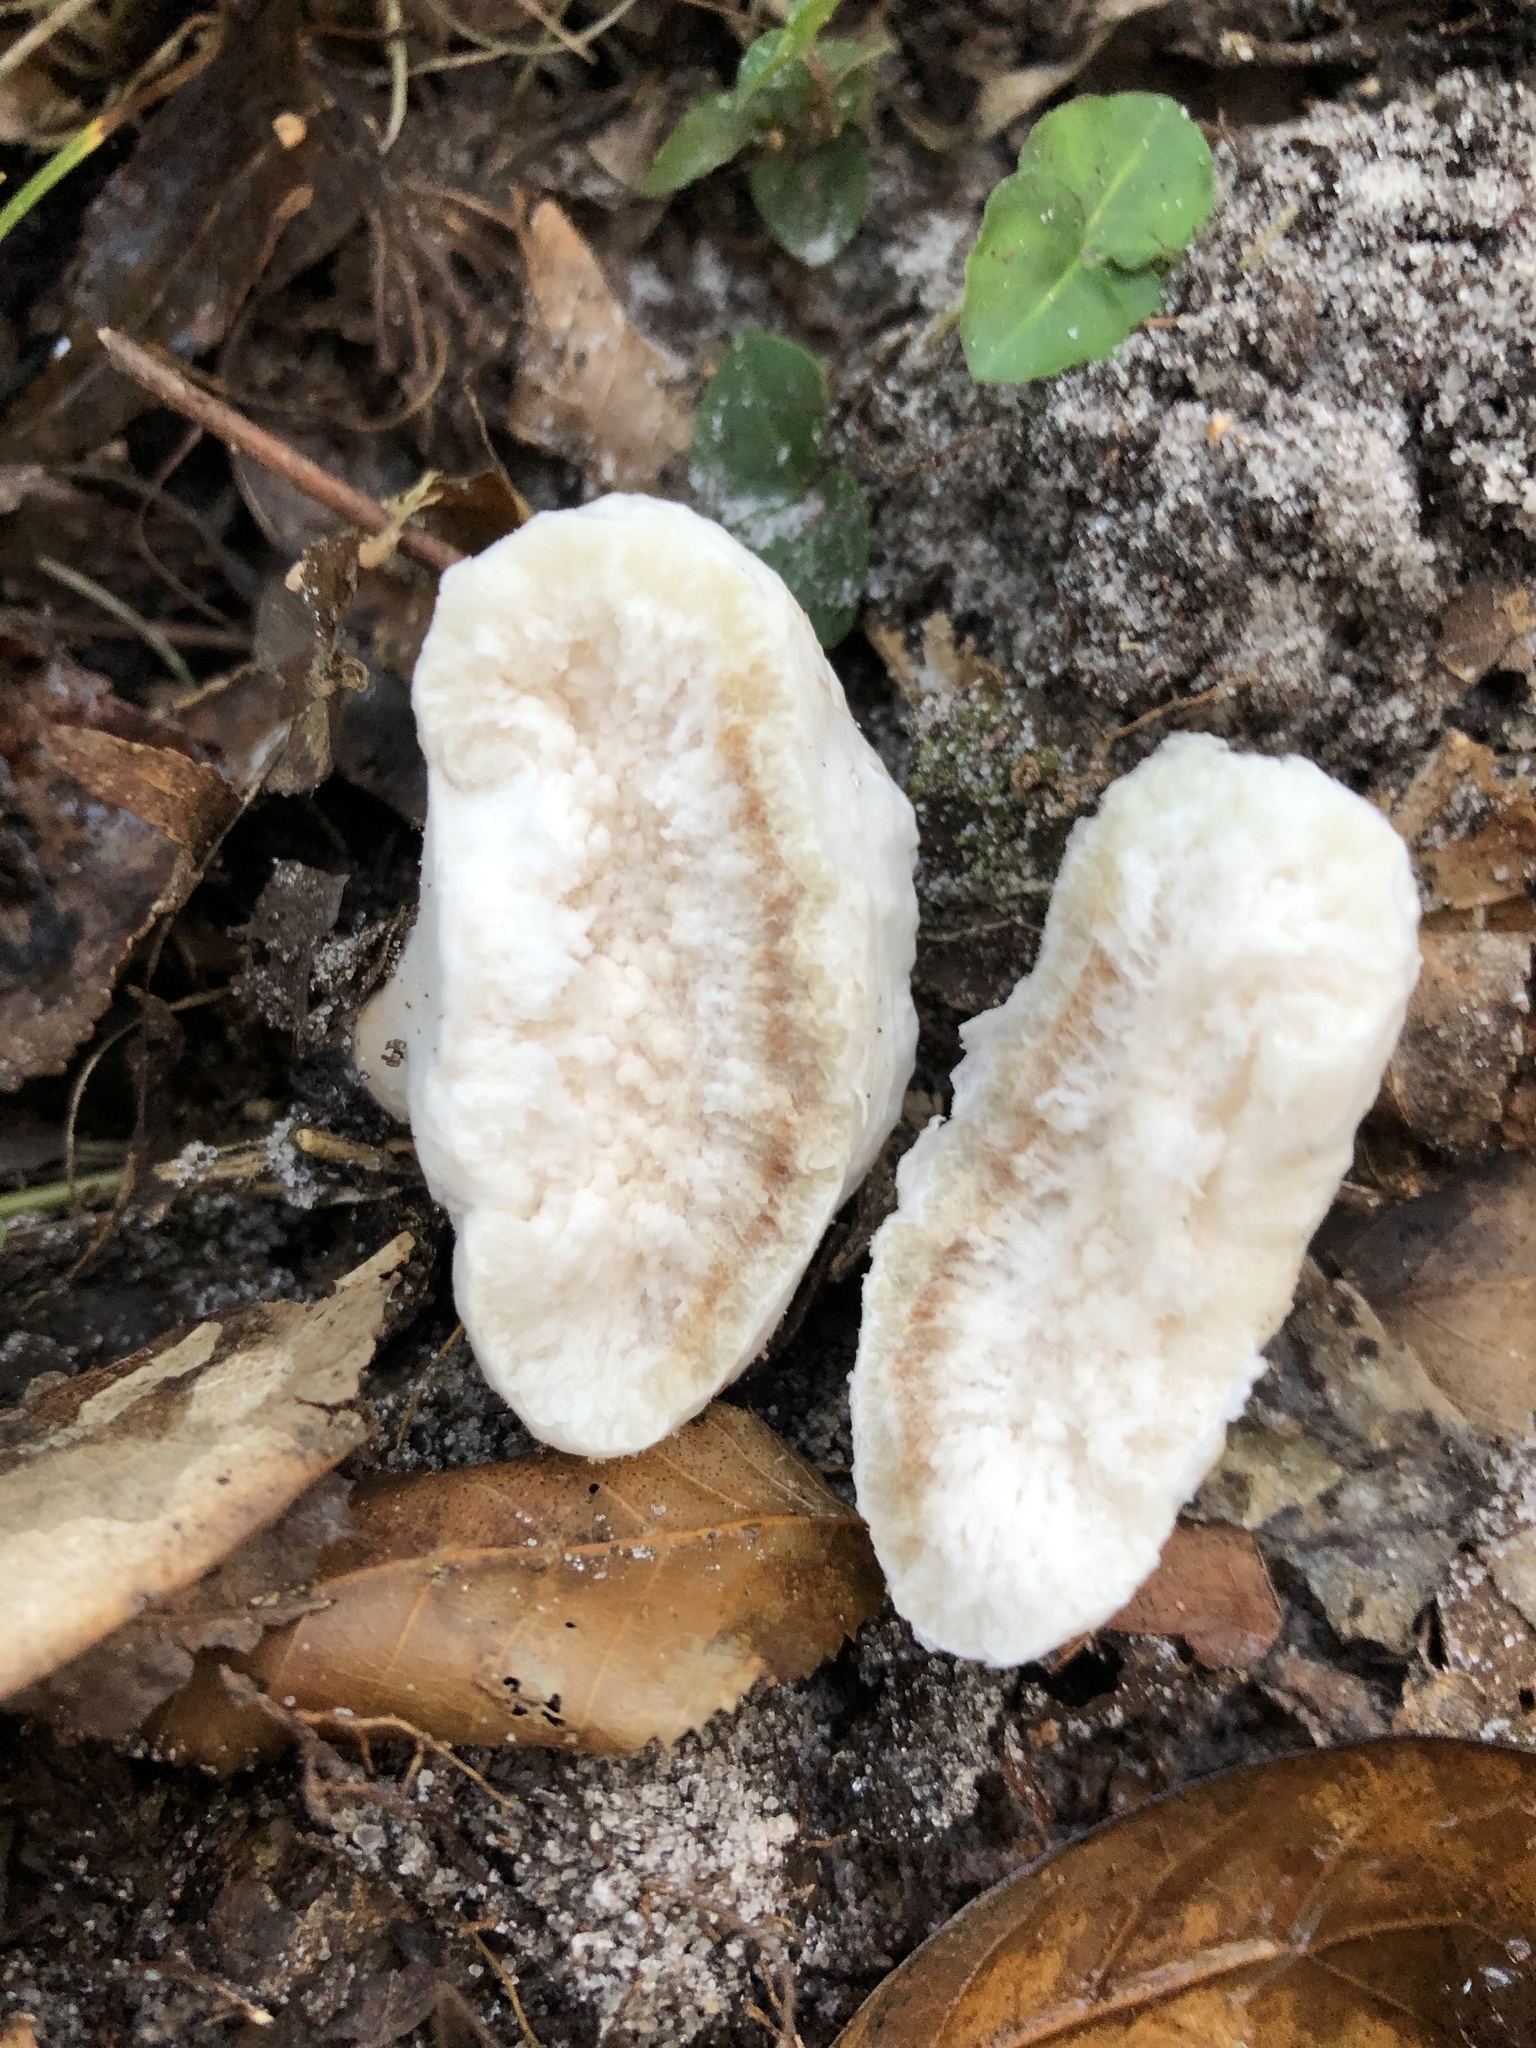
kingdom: Fungi
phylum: Basidiomycota
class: Agaricomycetes
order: Agaricales
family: Entolomataceae
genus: Entoloma
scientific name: Entoloma abortivum
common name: Aborted entoloma
